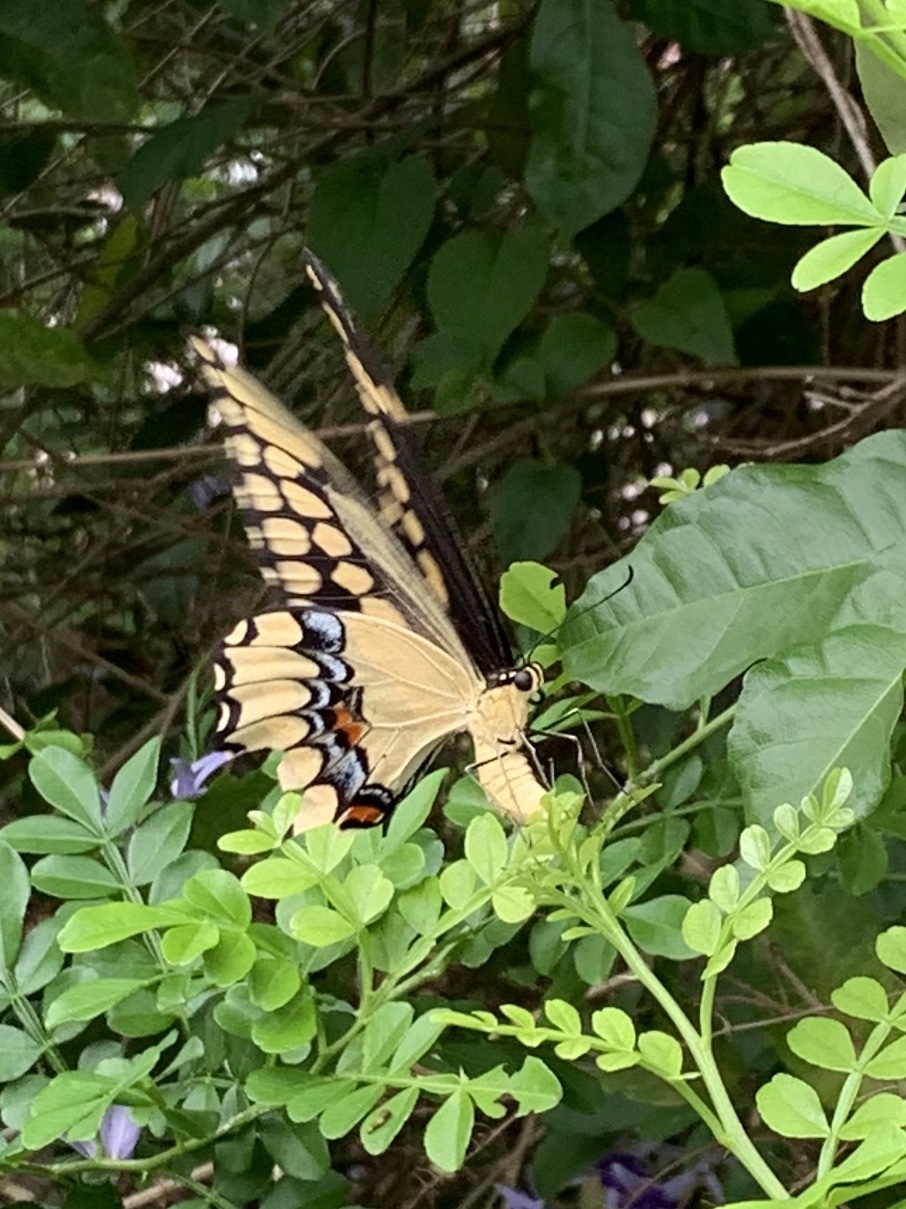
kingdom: Animalia
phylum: Arthropoda
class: Insecta
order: Lepidoptera
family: Papilionidae
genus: Papilio
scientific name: Papilio cresphontes
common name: Giant swallowtail
